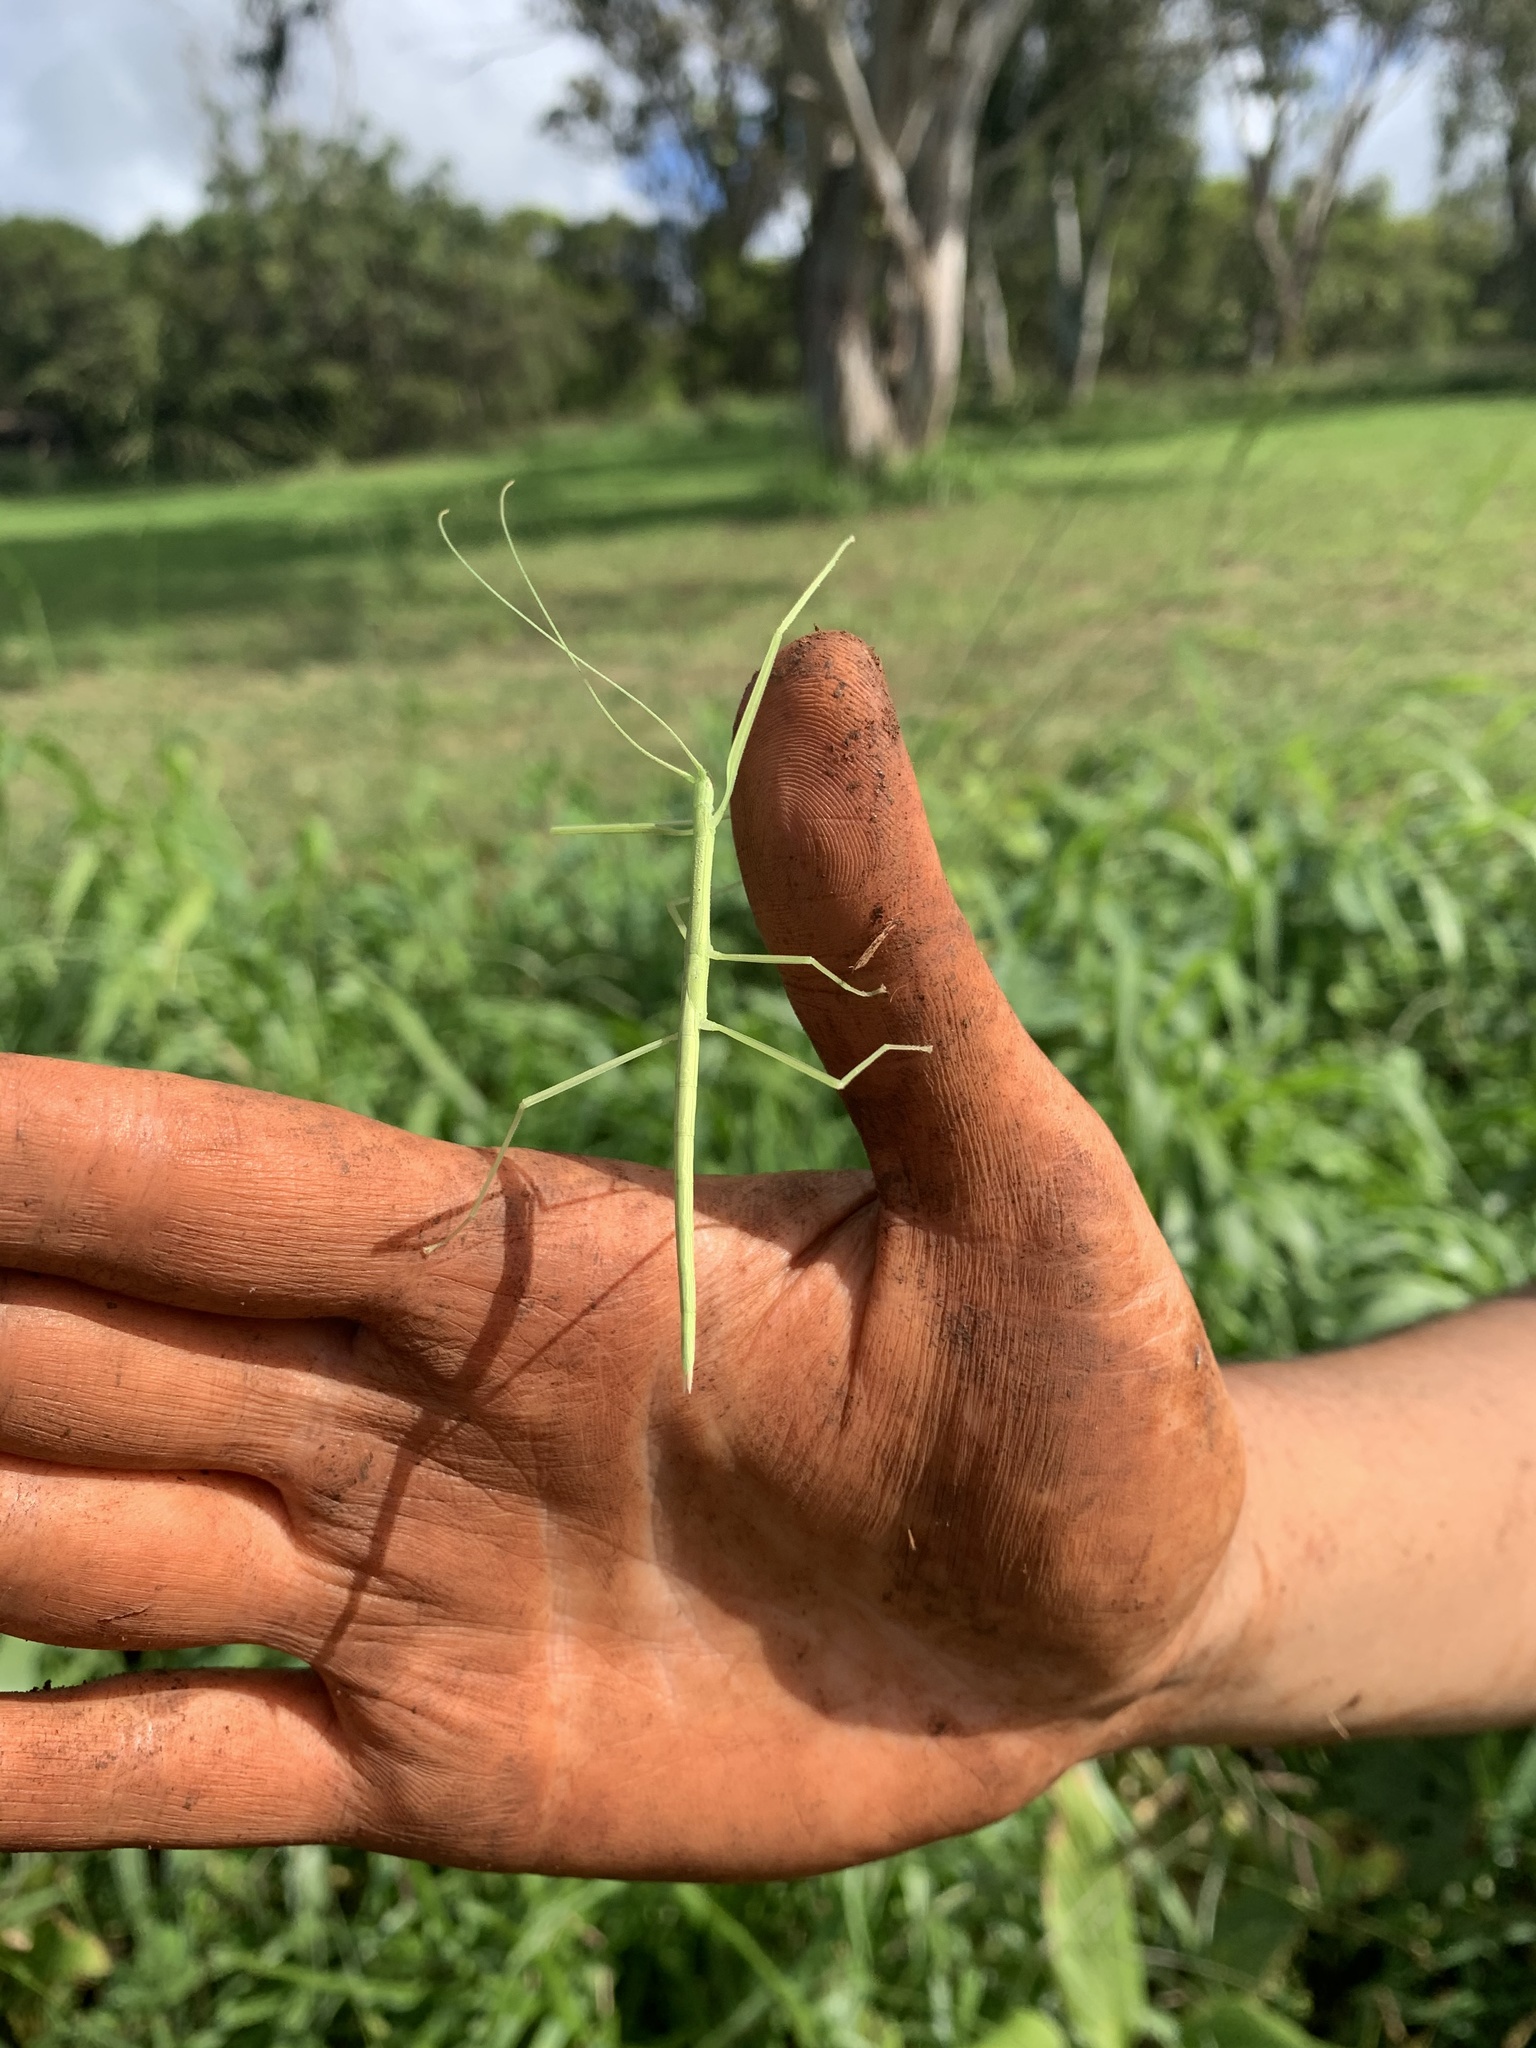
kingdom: Animalia
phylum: Arthropoda
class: Insecta
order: Phasmida
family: Lonchodidae
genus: Sipyloidea
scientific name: Sipyloidea sipylus
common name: Madagascan stick insect
